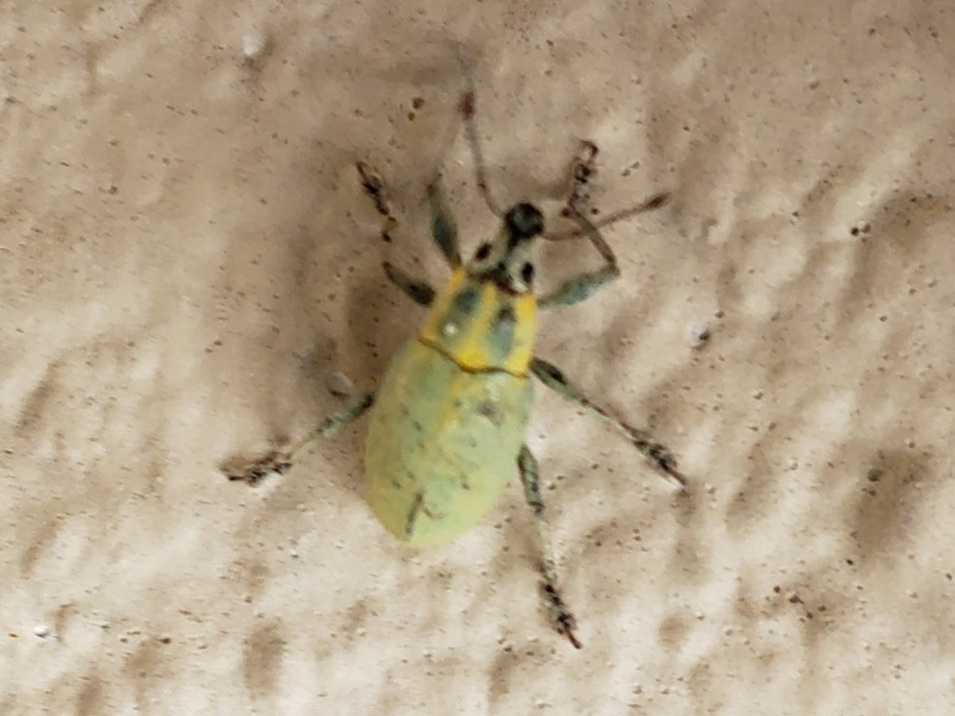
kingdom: Animalia
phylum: Arthropoda
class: Insecta
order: Coleoptera
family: Curculionidae
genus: Pachnaeus
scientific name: Pachnaeus litus
